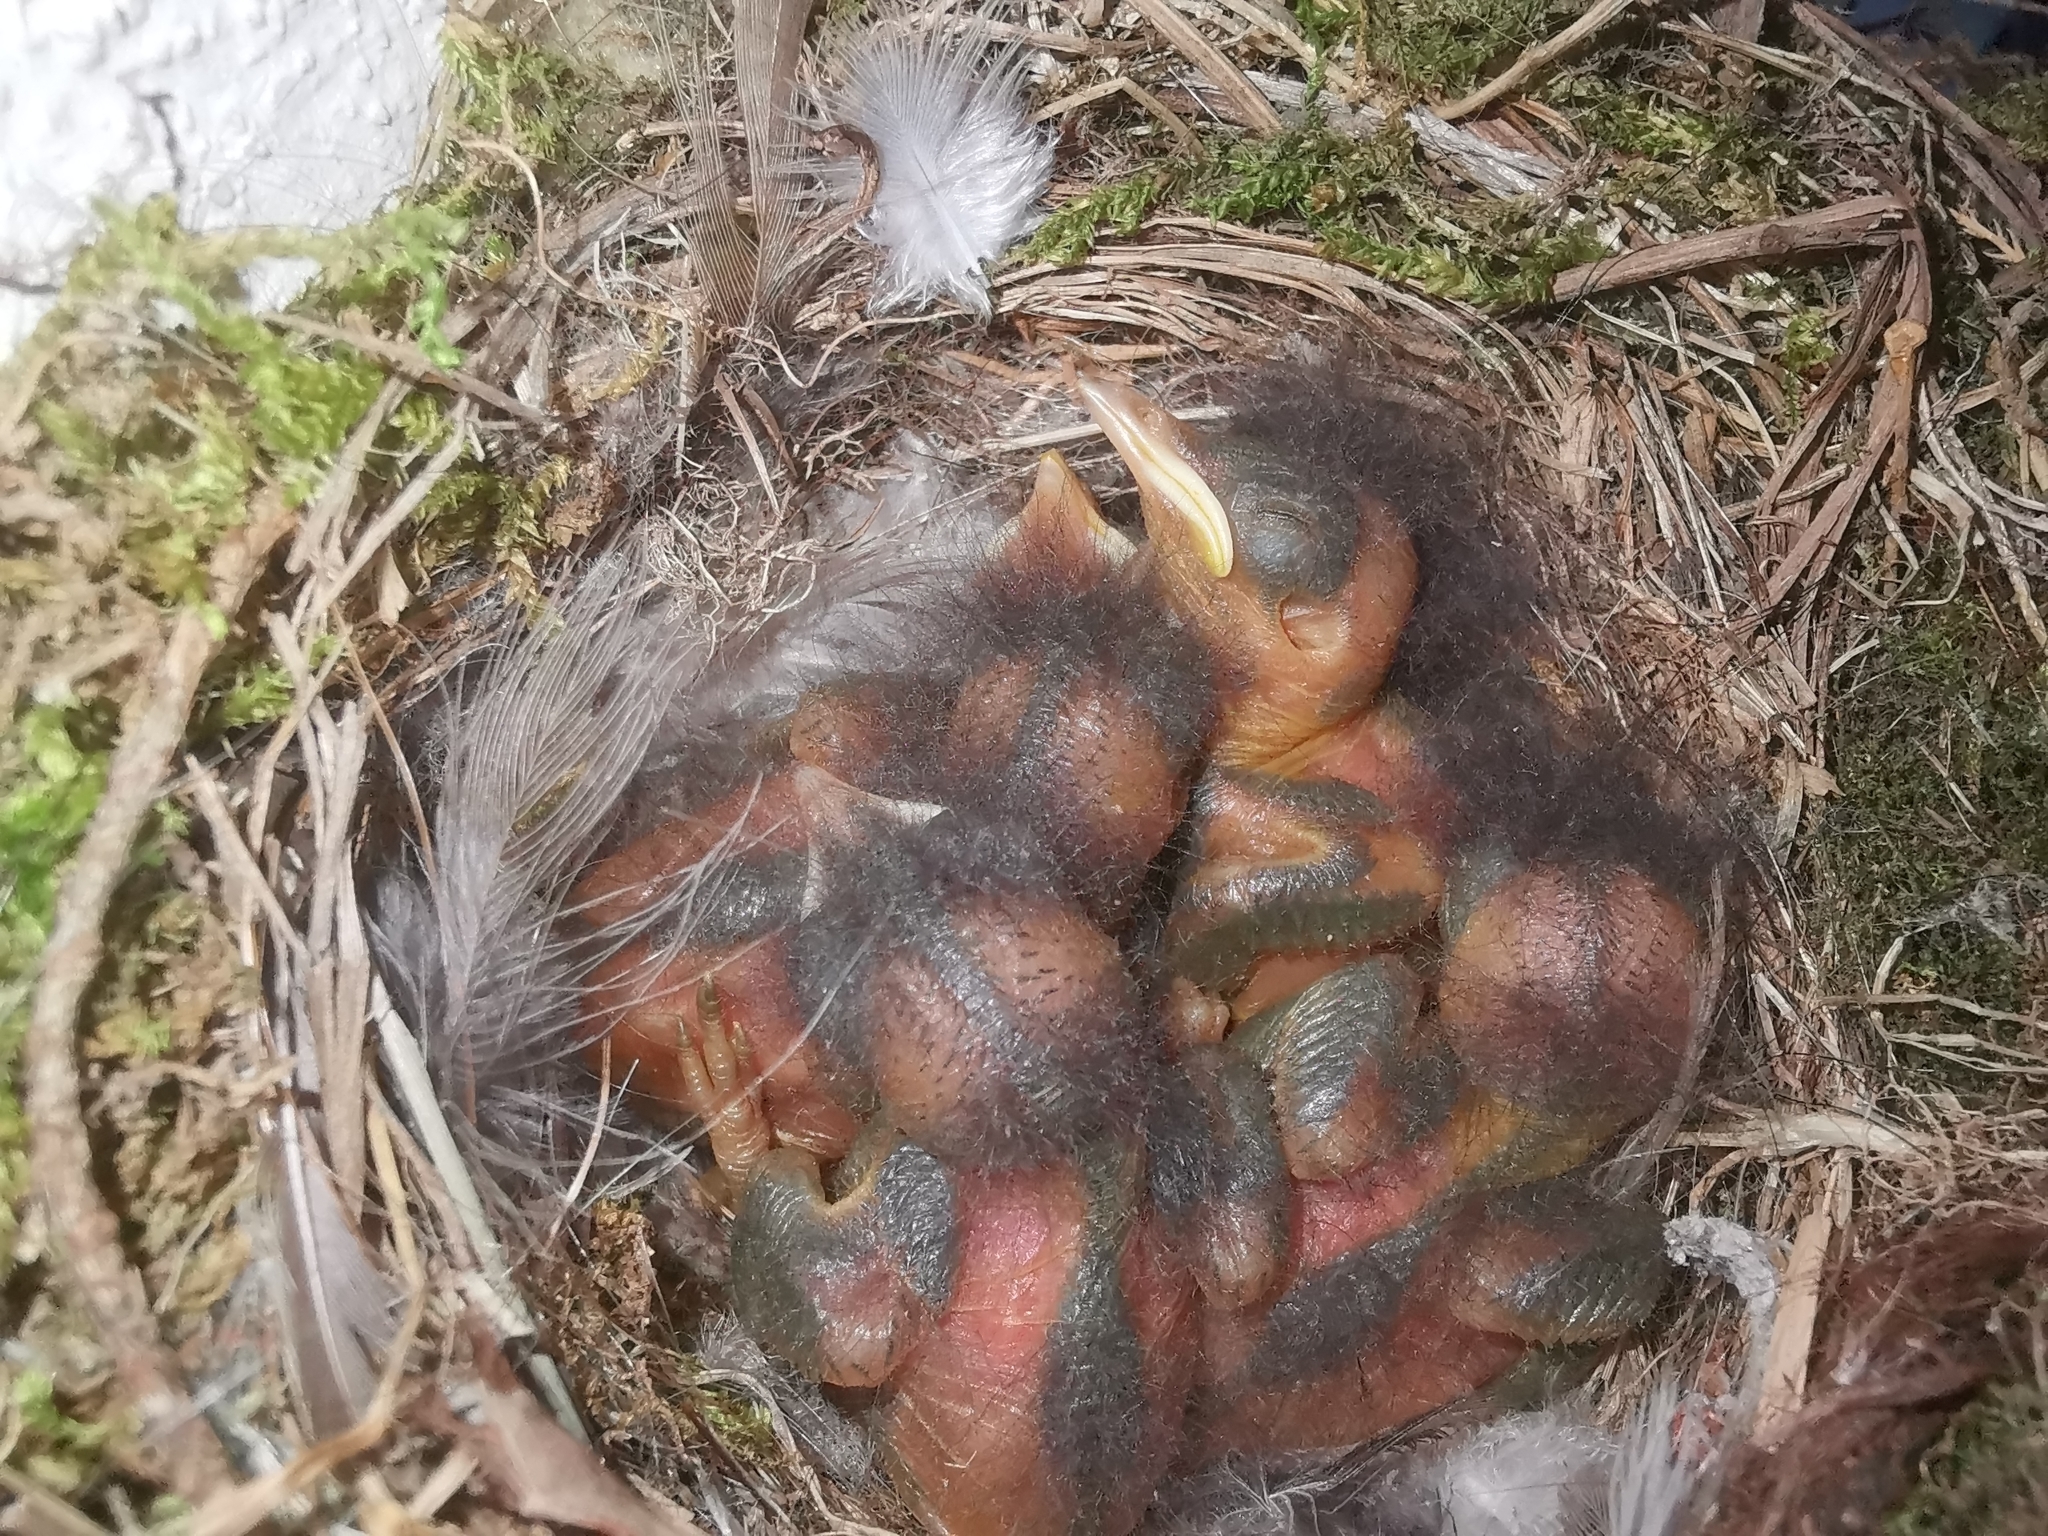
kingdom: Animalia
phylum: Chordata
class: Aves
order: Passeriformes
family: Muscicapidae
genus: Phoenicurus
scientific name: Phoenicurus ochruros
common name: Black redstart
